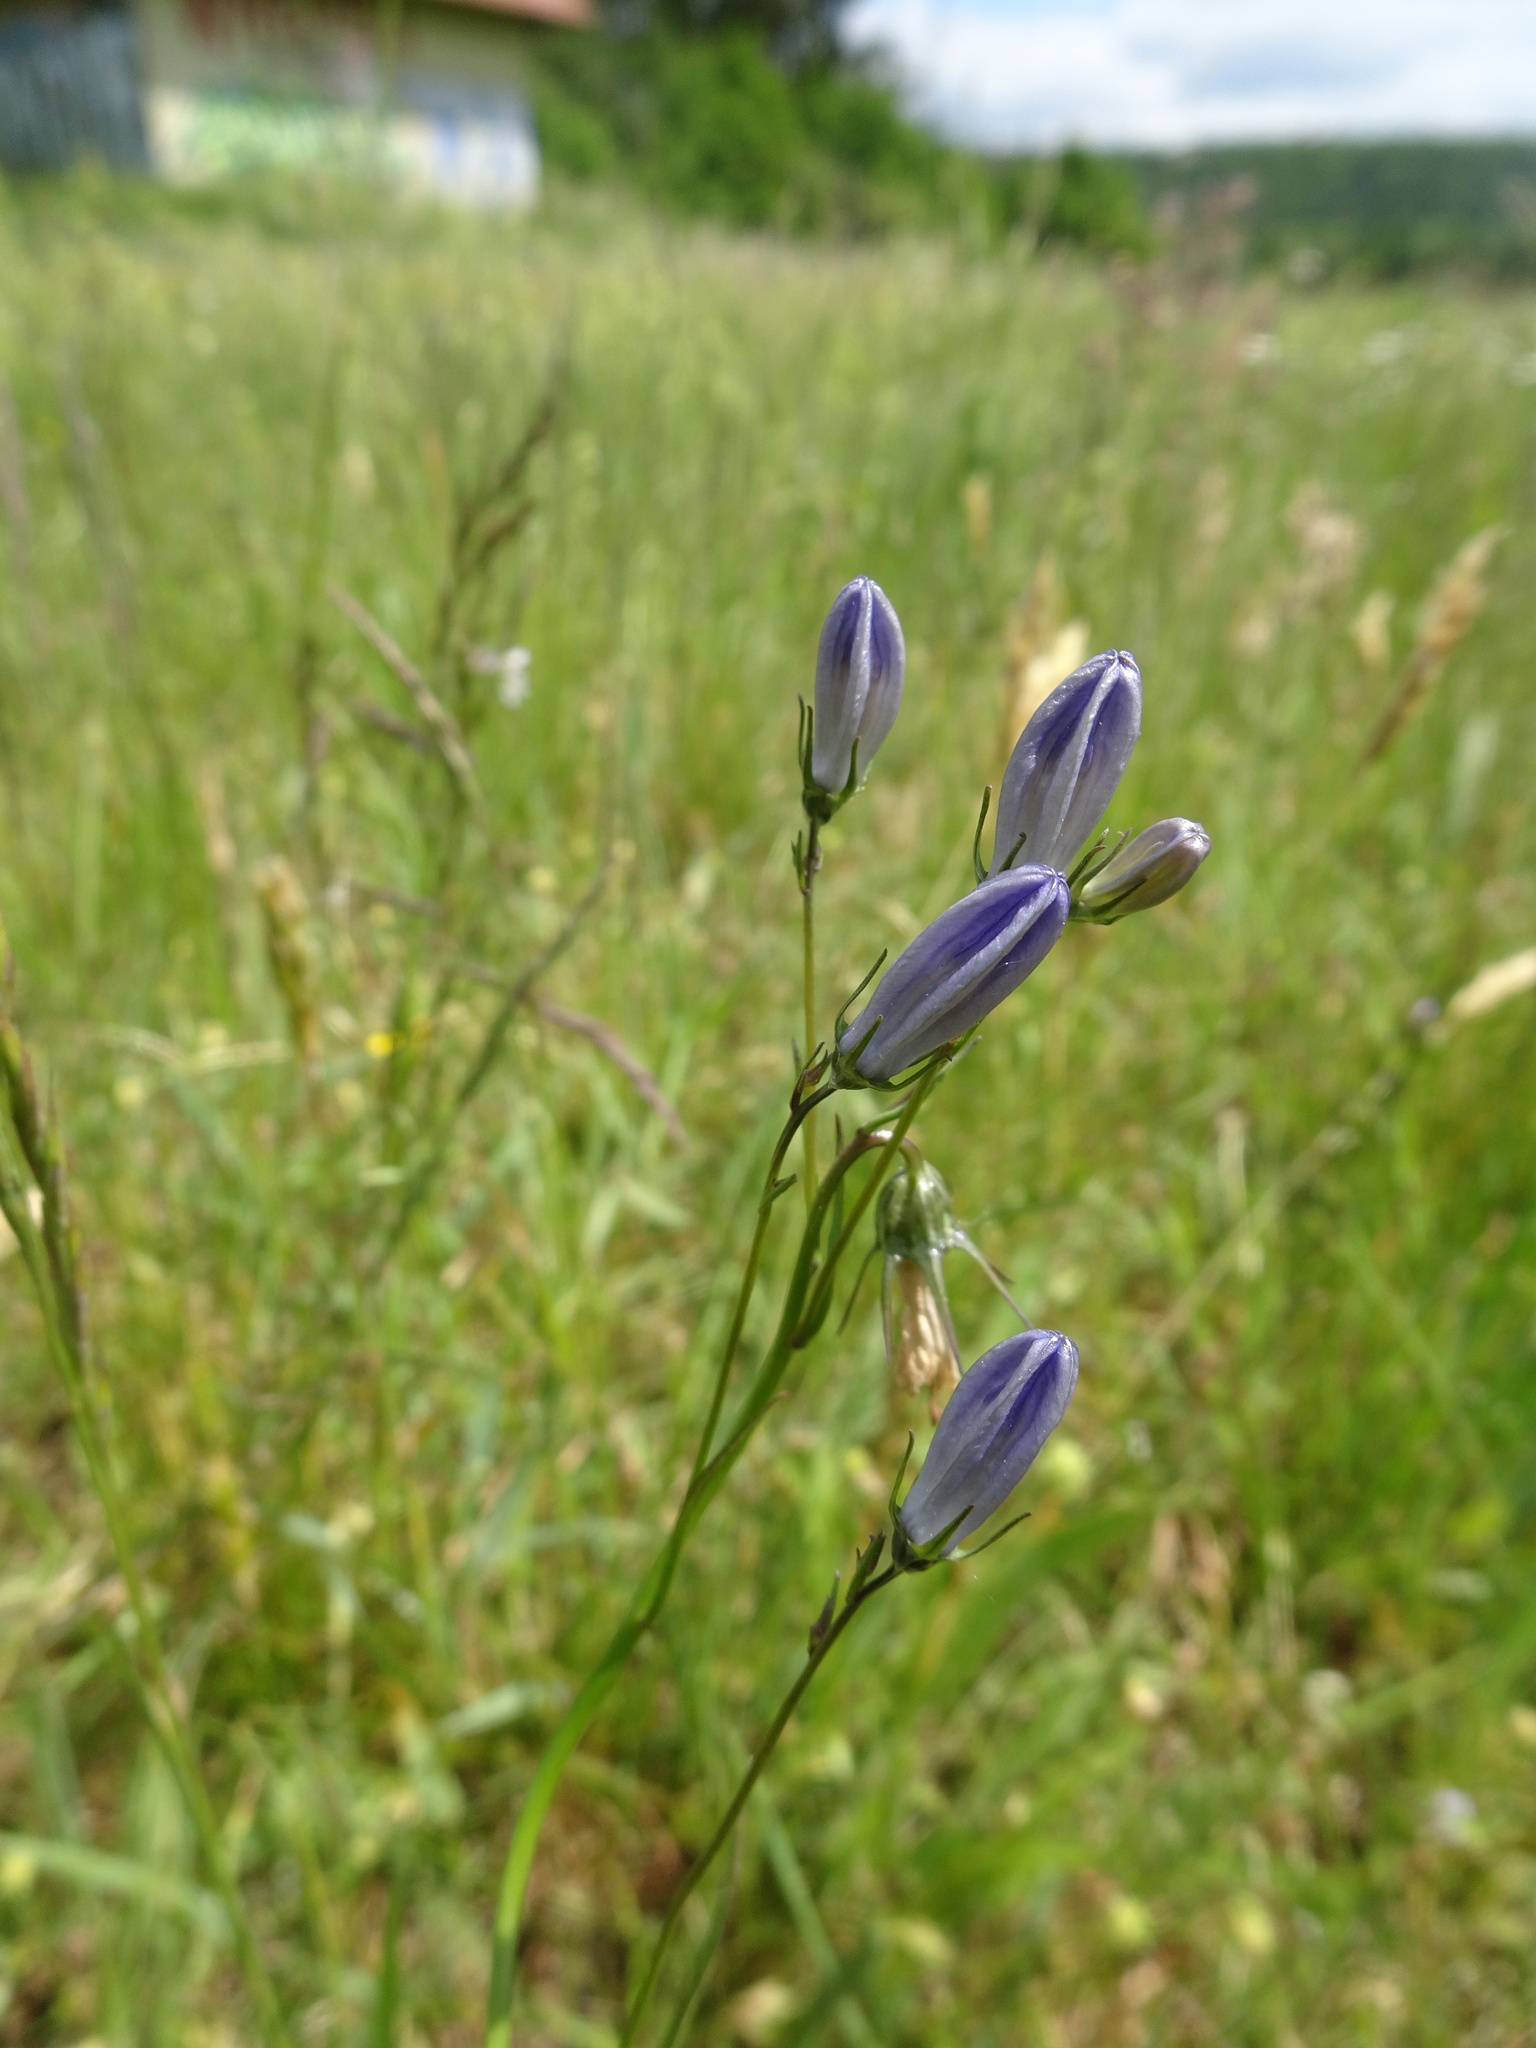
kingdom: Plantae
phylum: Tracheophyta
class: Magnoliopsida
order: Asterales
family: Campanulaceae
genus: Campanula
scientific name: Campanula rotundifolia
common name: Harebell
